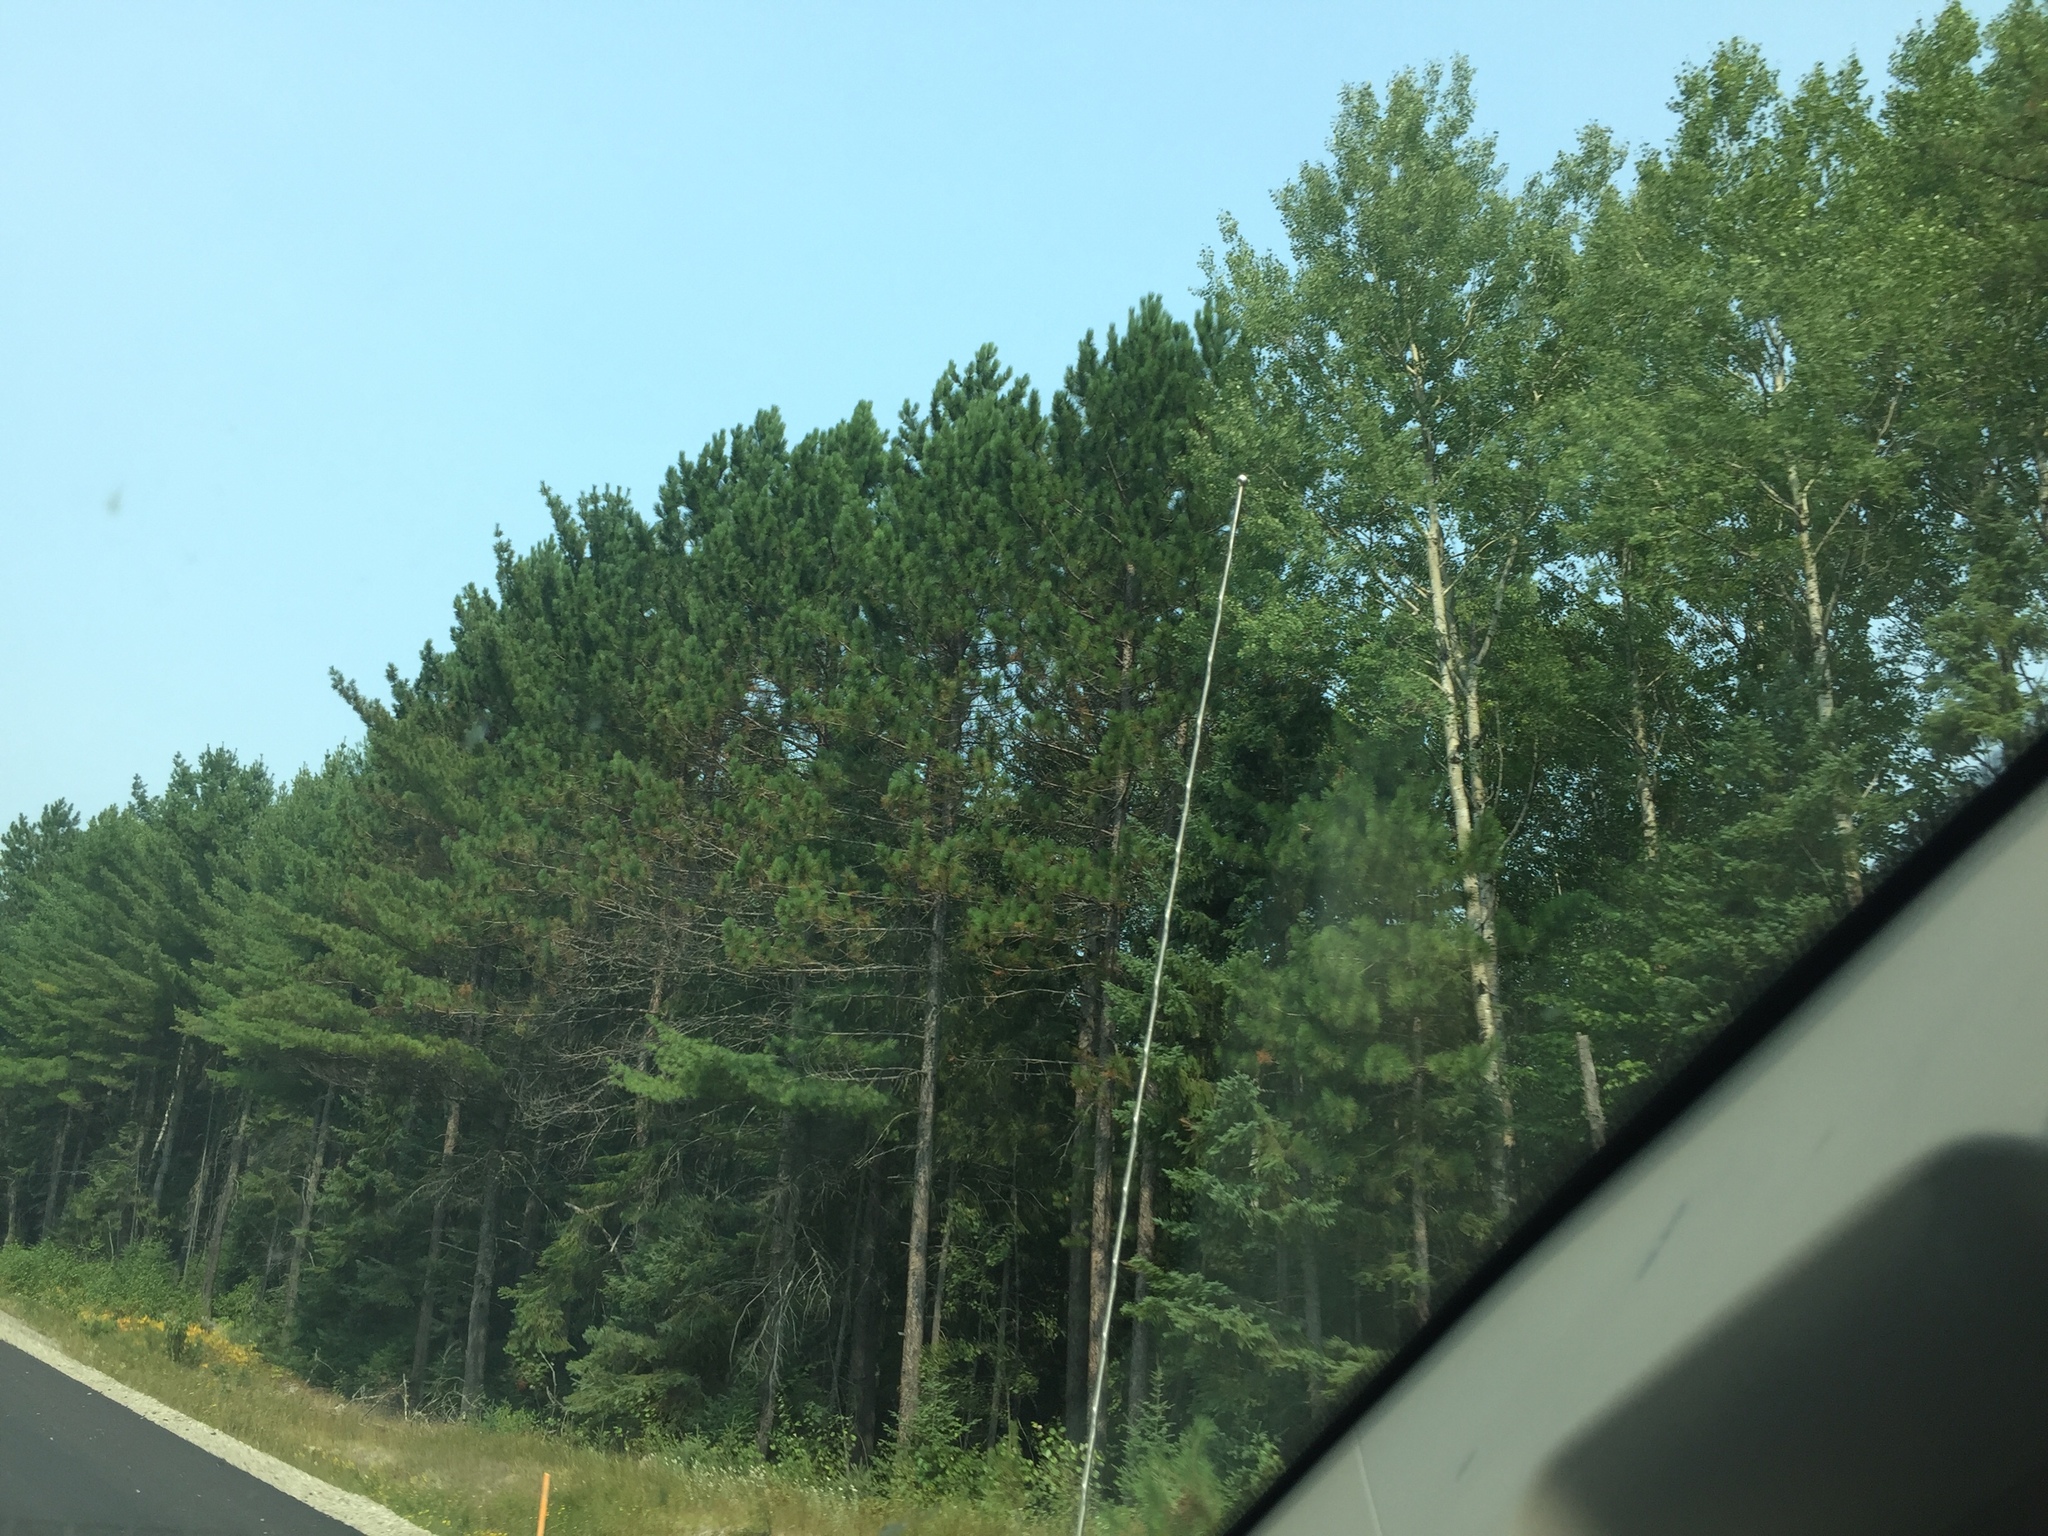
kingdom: Plantae
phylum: Tracheophyta
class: Pinopsida
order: Pinales
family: Pinaceae
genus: Pinus
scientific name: Pinus resinosa
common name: Norway pine
